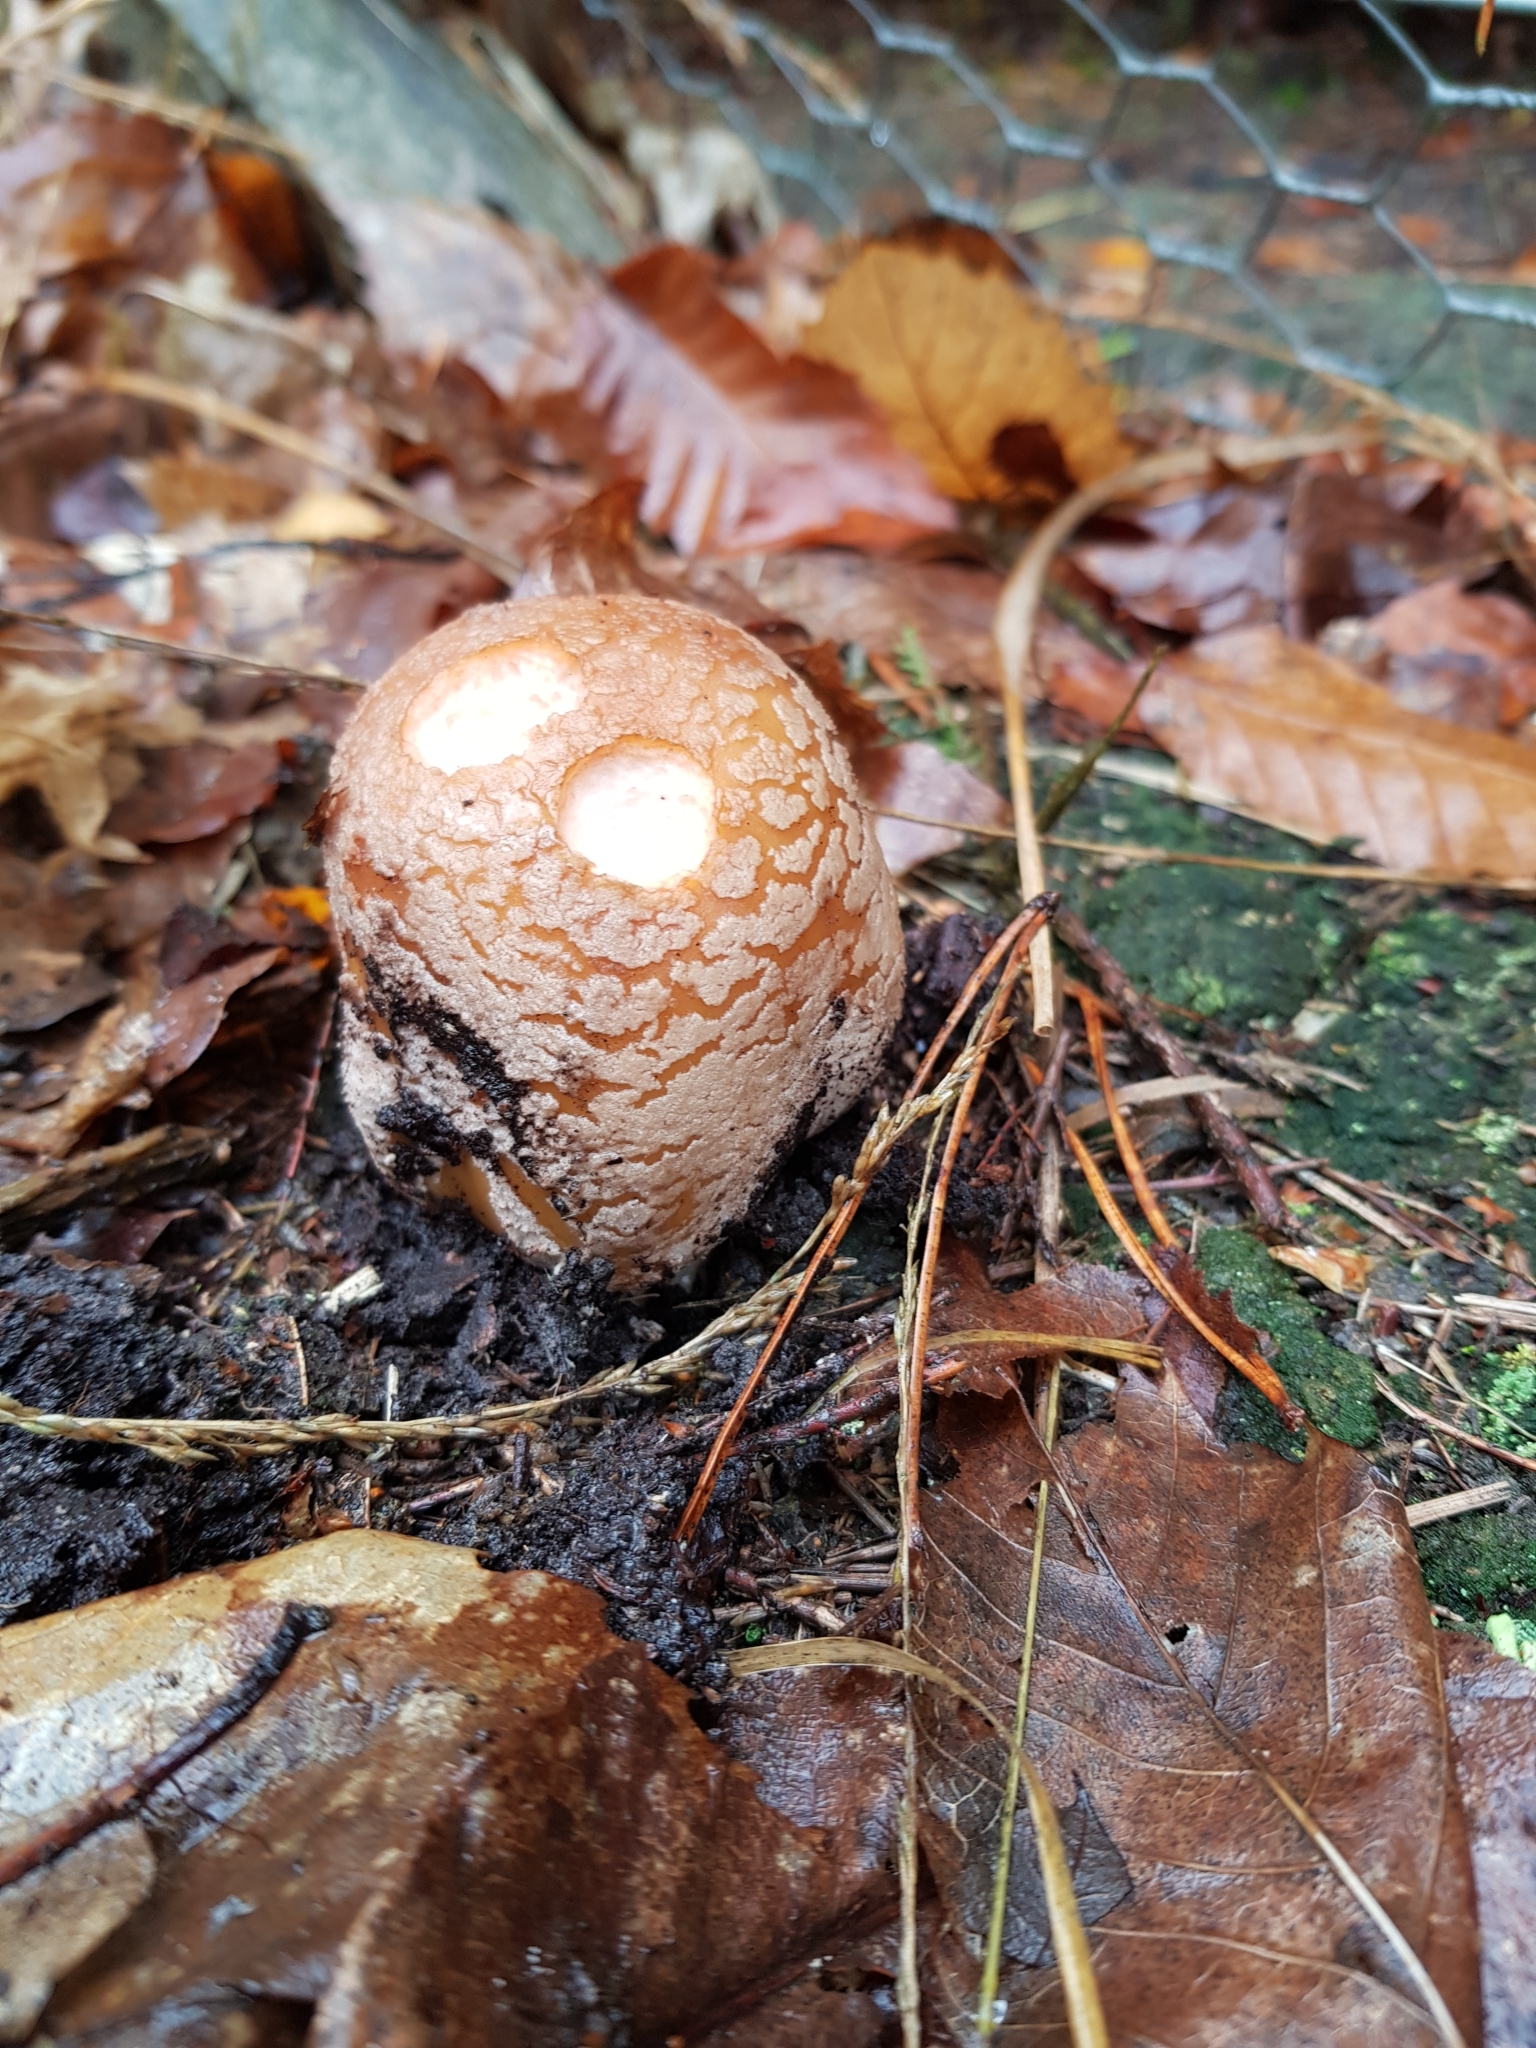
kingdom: Fungi
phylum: Basidiomycota
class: Agaricomycetes
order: Agaricales
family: Amanitaceae
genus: Amanita
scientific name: Amanita rubescens
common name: Blusher
